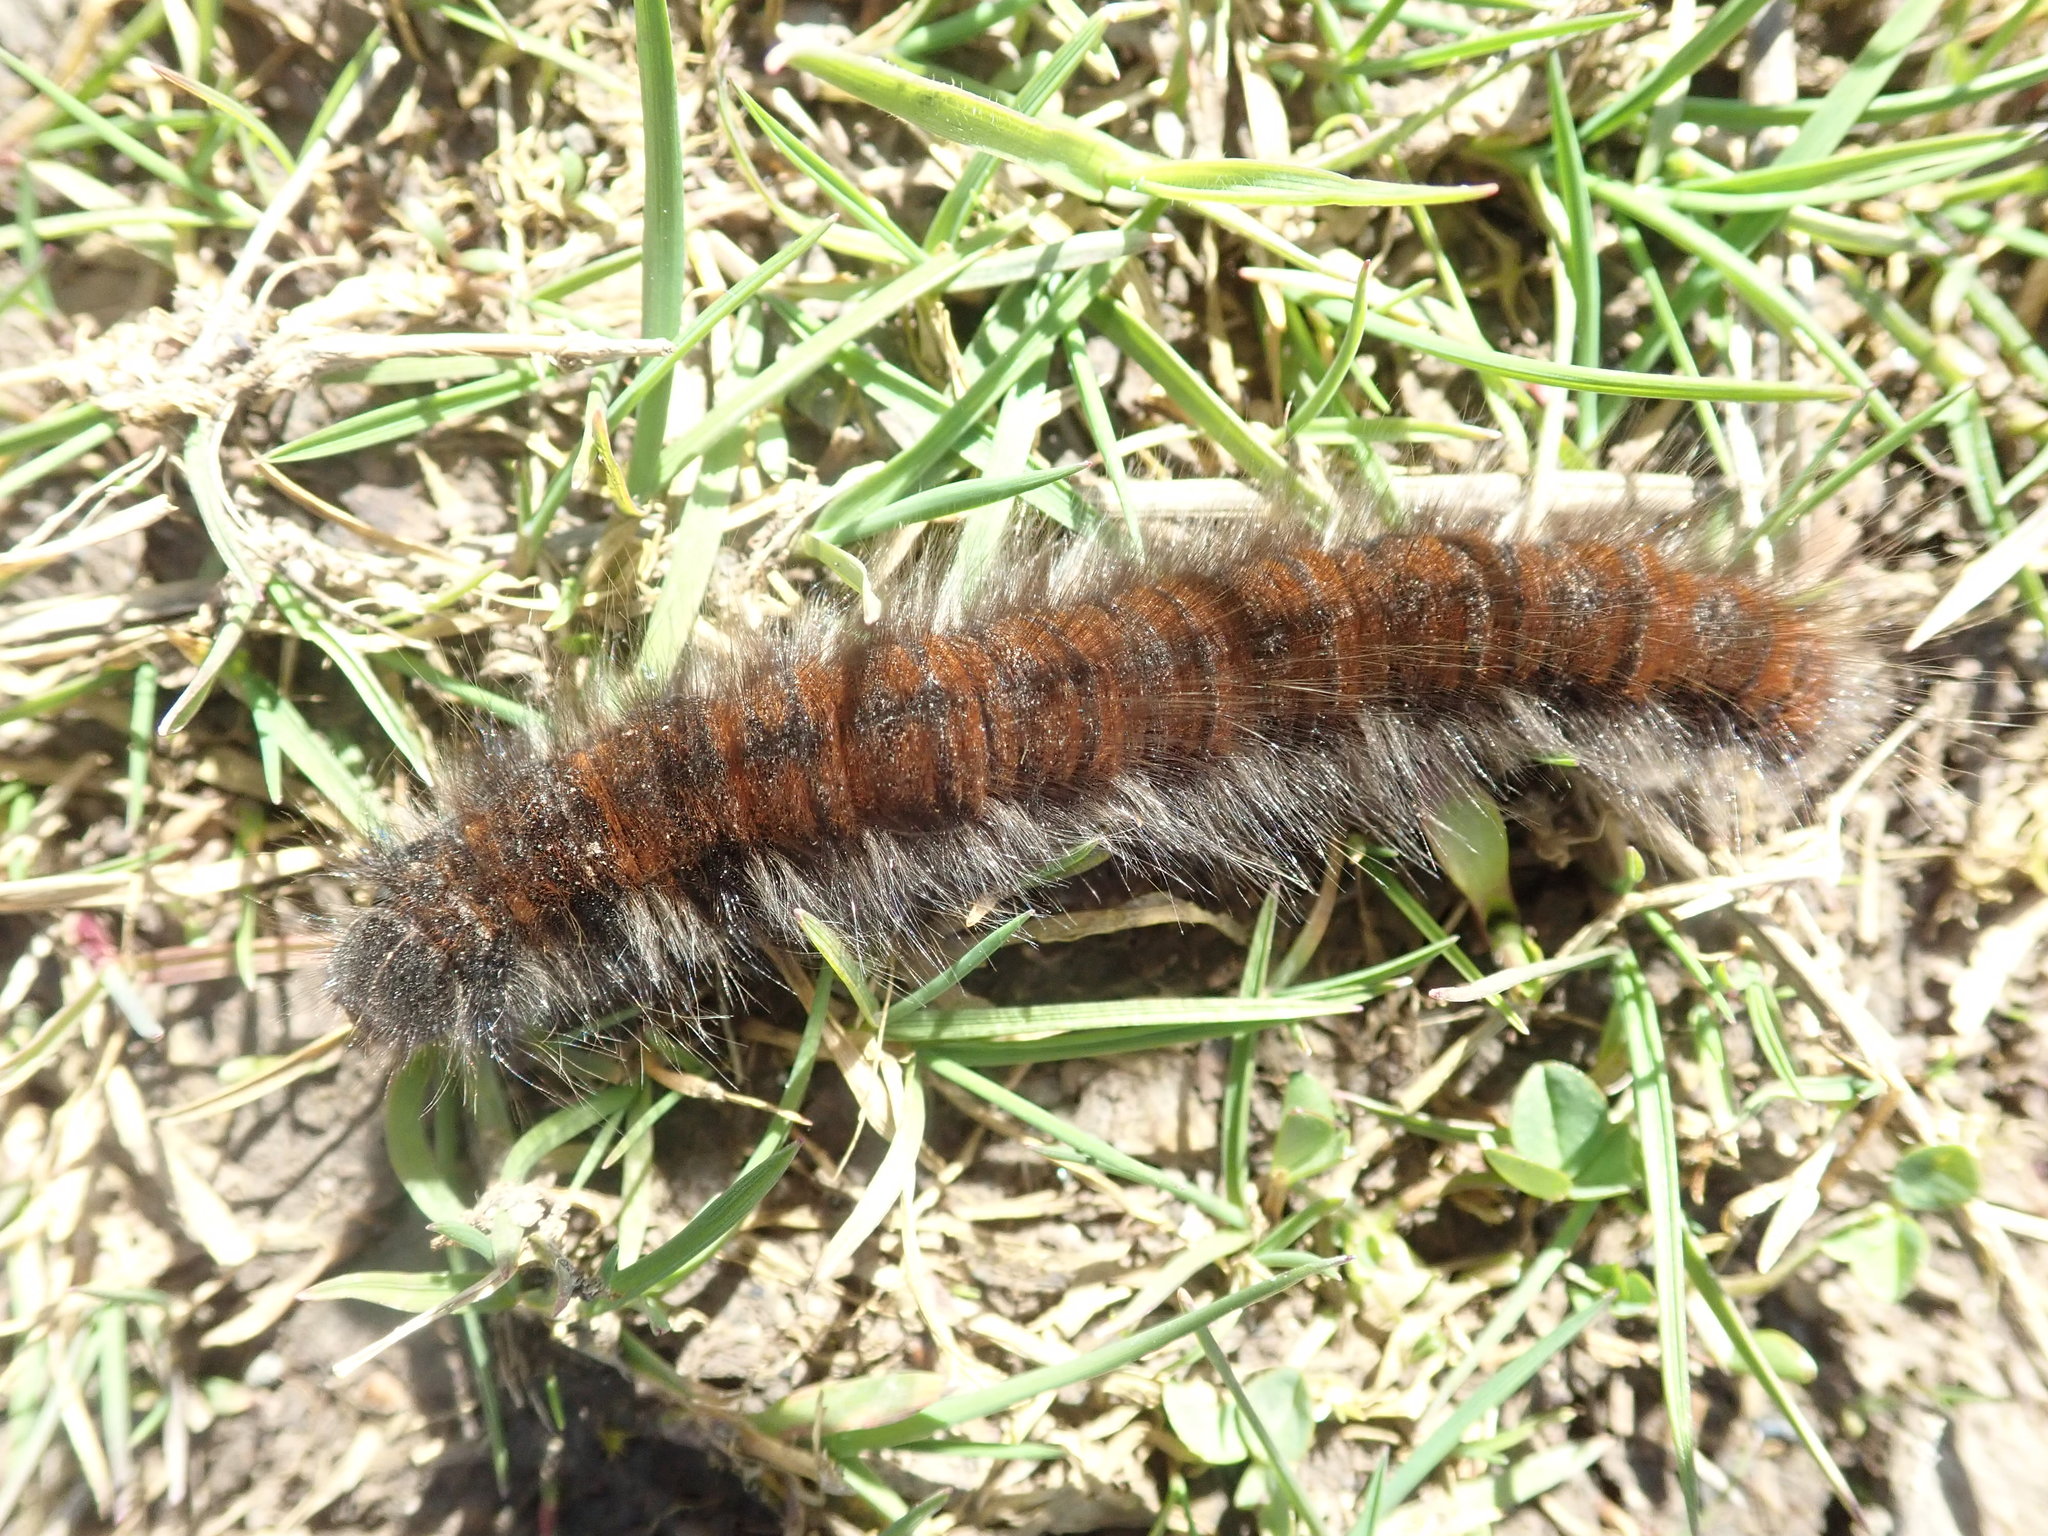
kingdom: Animalia
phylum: Arthropoda
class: Insecta
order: Lepidoptera
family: Lasiocampidae
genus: Macrothylacia
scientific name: Macrothylacia rubi
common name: Fox moth
